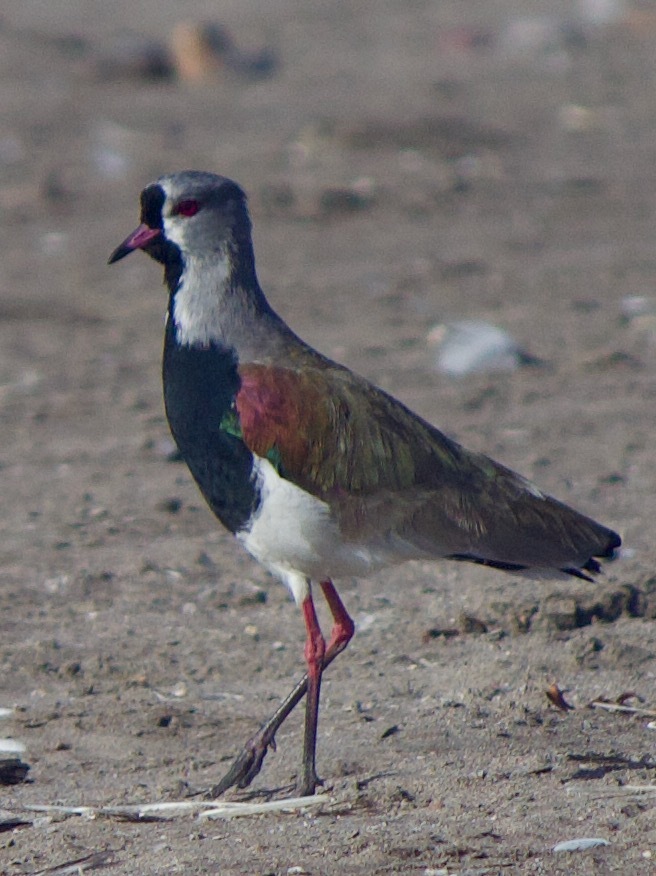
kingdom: Animalia
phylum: Chordata
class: Aves
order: Charadriiformes
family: Charadriidae
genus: Vanellus
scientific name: Vanellus chilensis
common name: Southern lapwing
